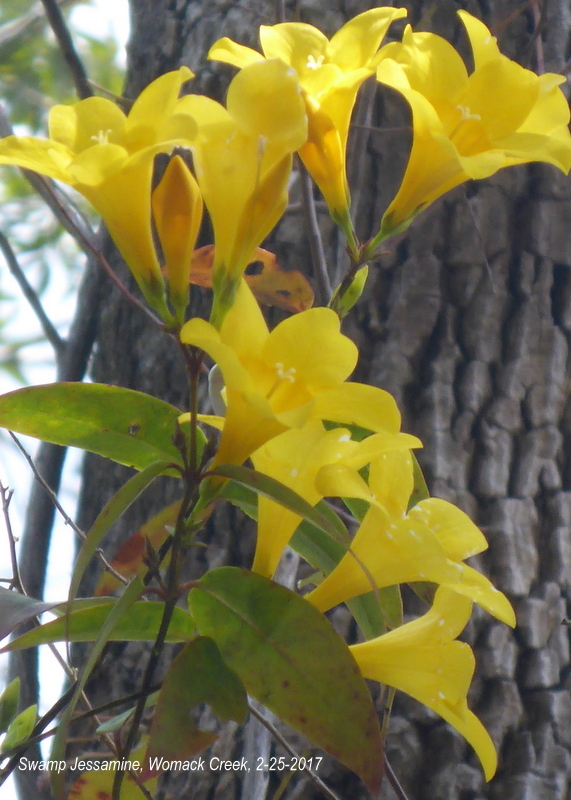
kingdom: Plantae
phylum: Tracheophyta
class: Magnoliopsida
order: Gentianales
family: Gelsemiaceae
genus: Gelsemium
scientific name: Gelsemium rankinii
